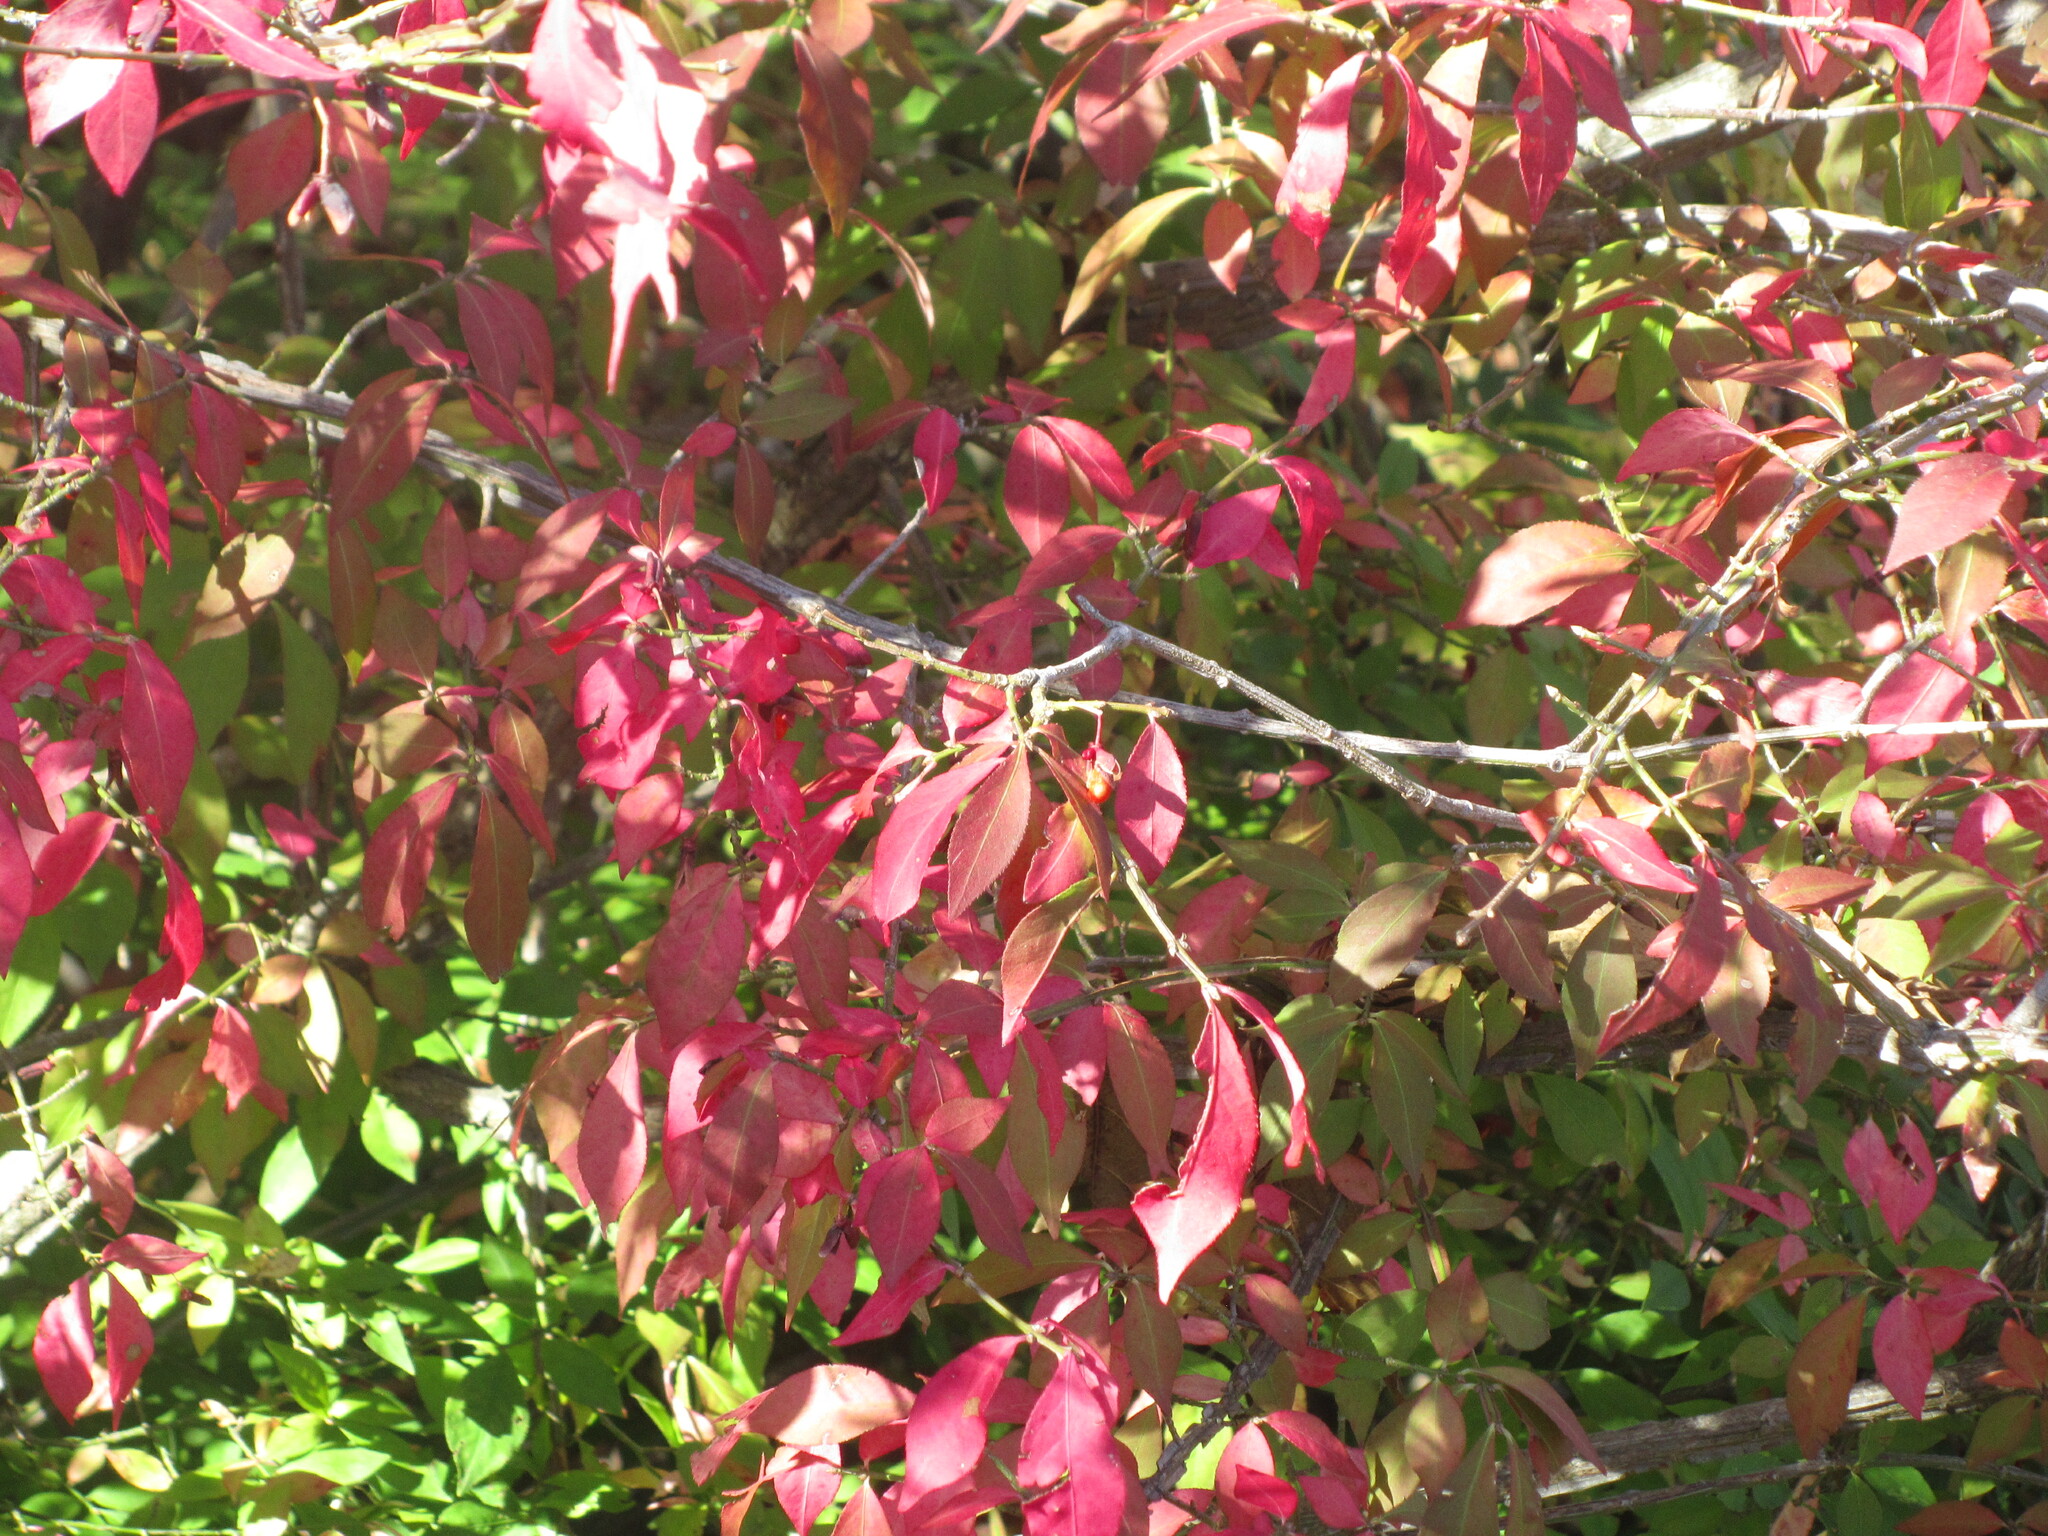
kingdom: Plantae
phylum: Tracheophyta
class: Magnoliopsida
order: Celastrales
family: Celastraceae
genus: Euonymus
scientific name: Euonymus alatus
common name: Winged euonymus
